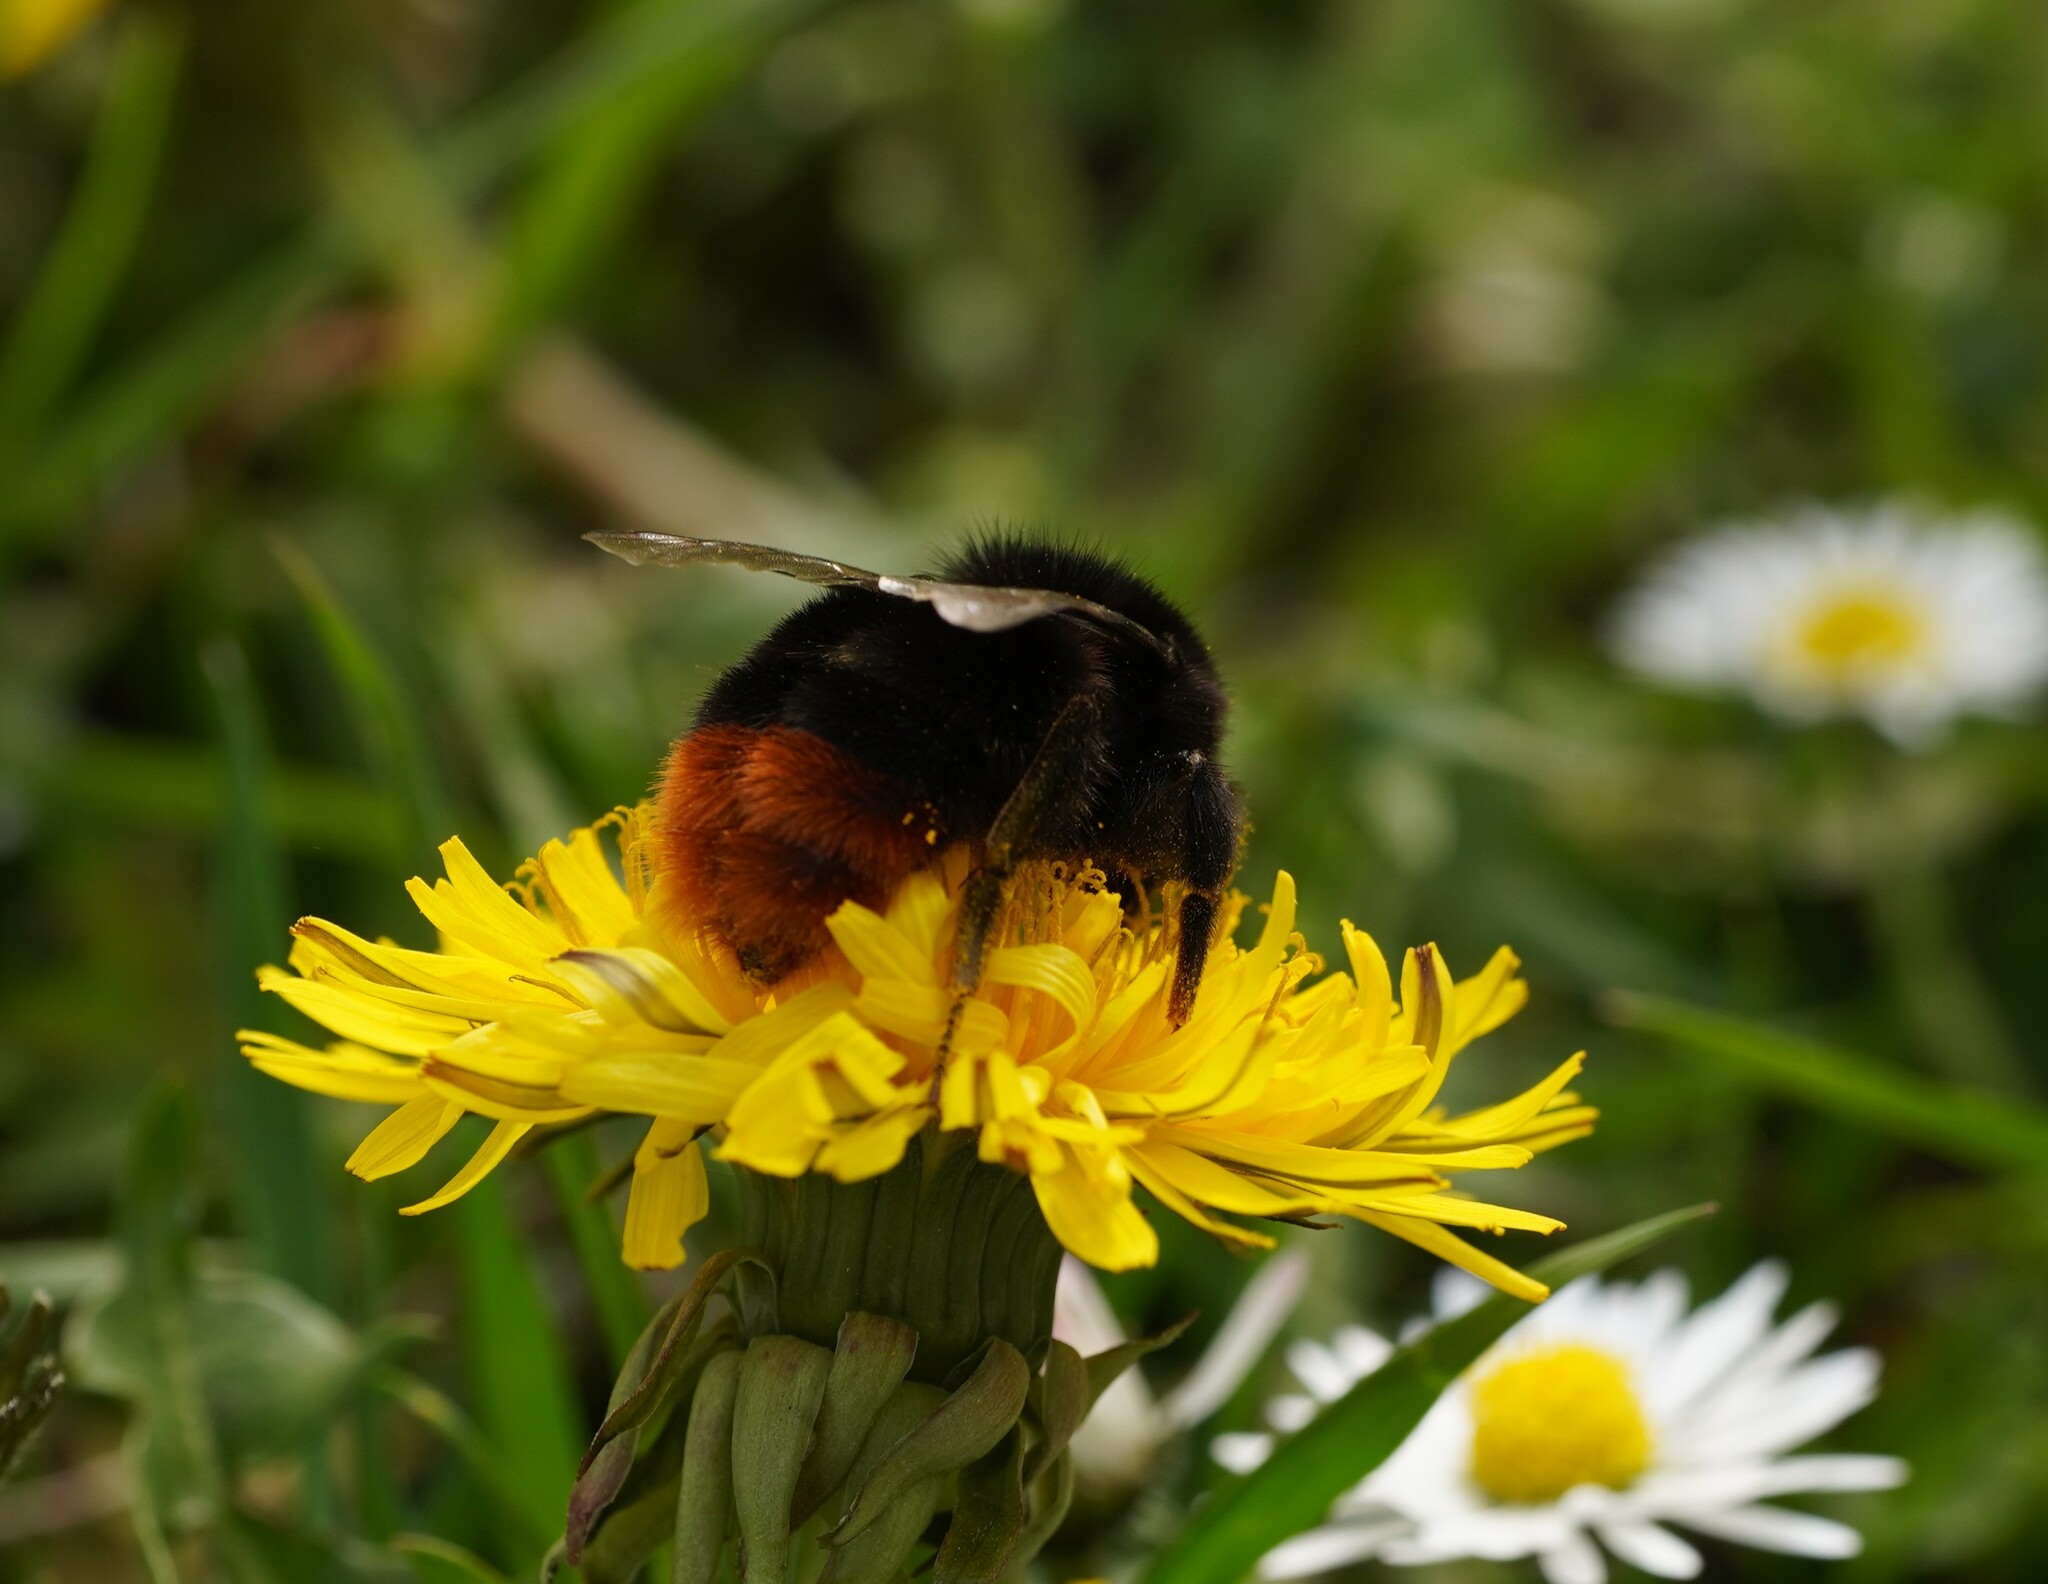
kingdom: Animalia
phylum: Arthropoda
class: Insecta
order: Hymenoptera
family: Apidae
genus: Bombus
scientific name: Bombus lapidarius
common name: Large red-tailed humble-bee
